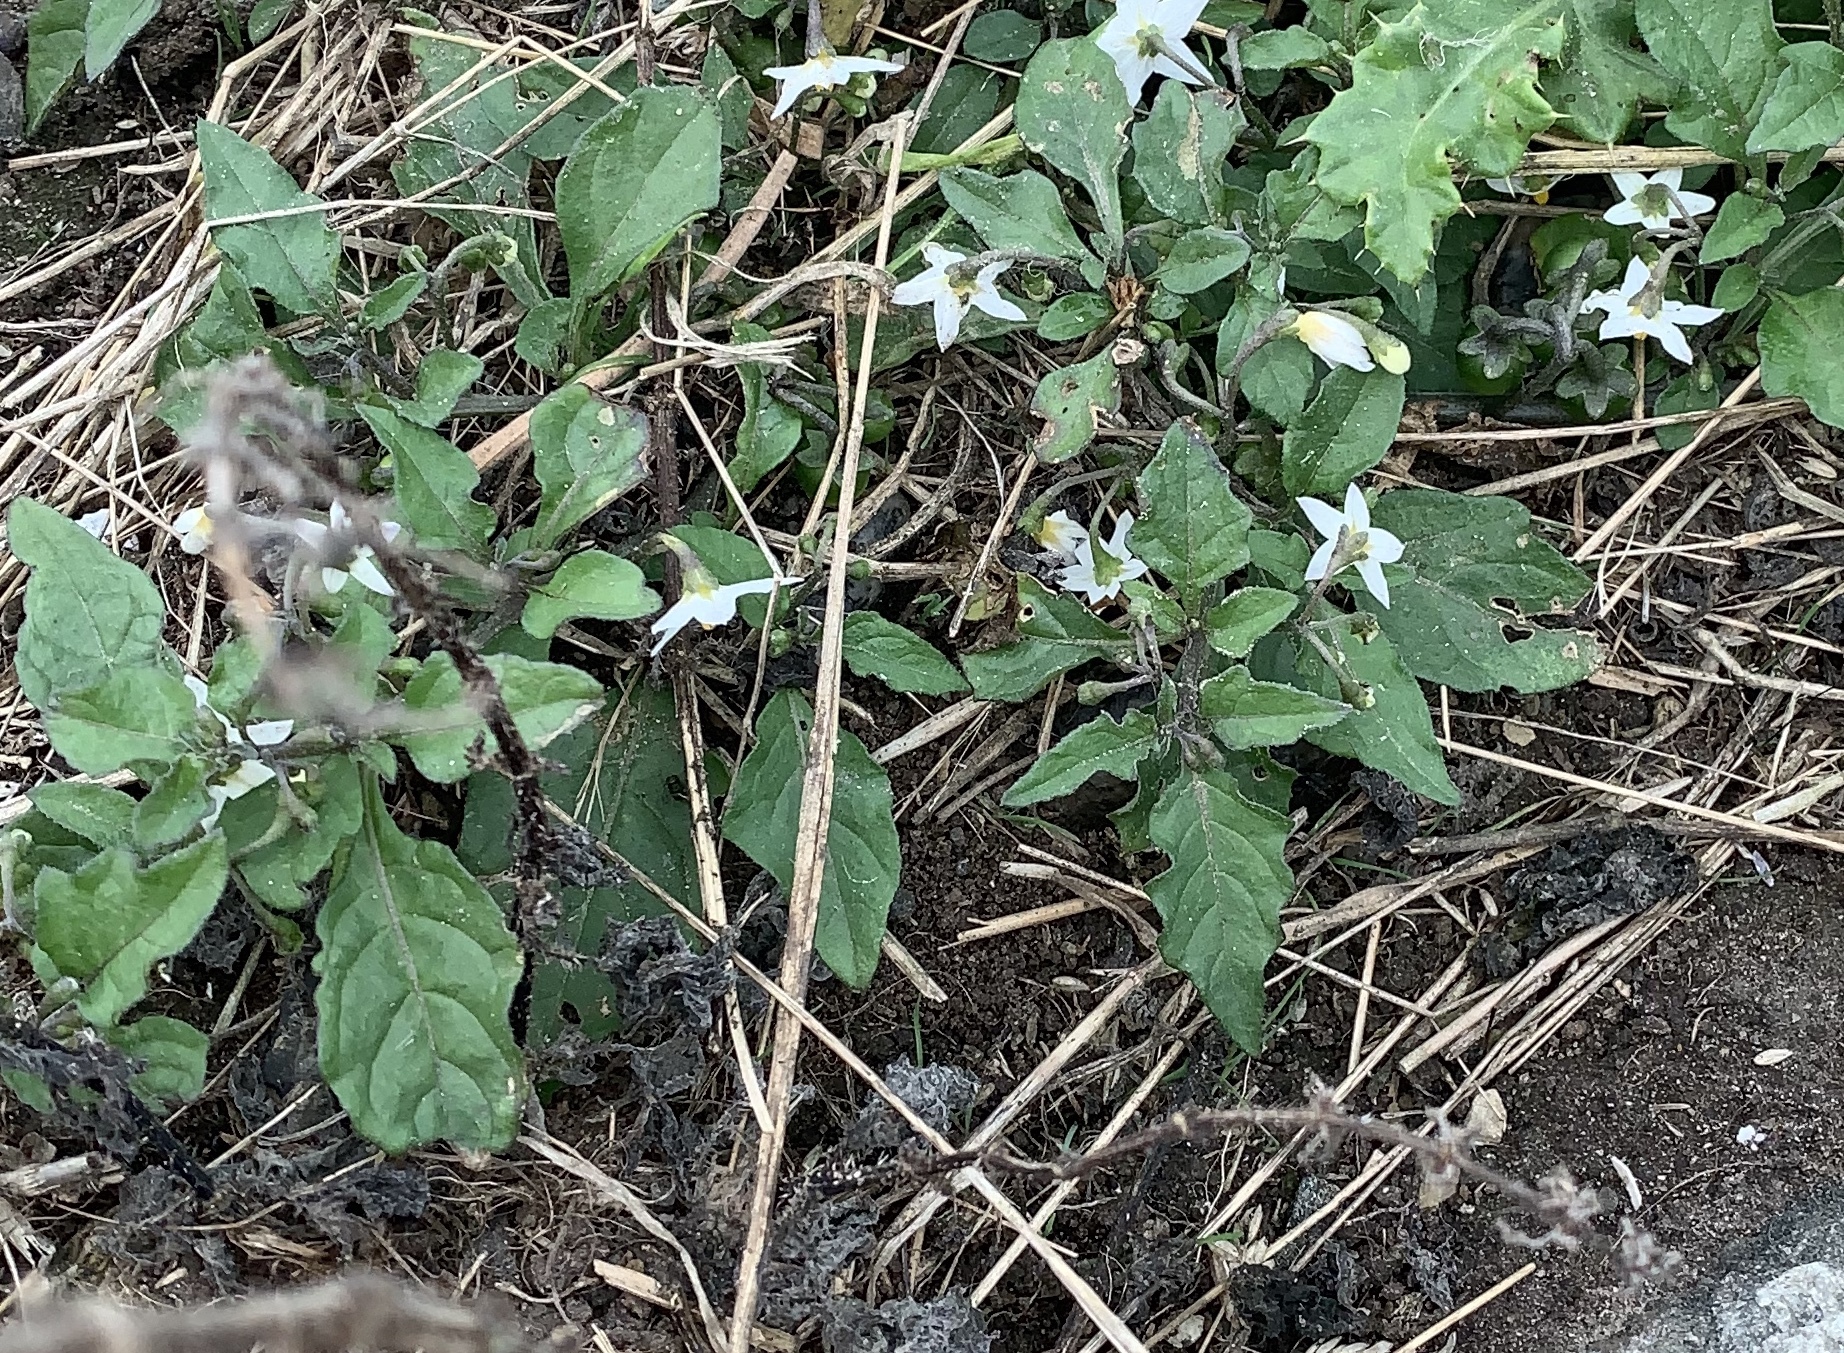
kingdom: Plantae
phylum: Tracheophyta
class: Magnoliopsida
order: Solanales
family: Solanaceae
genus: Solanum
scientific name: Solanum nigrum
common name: Black nightshade
